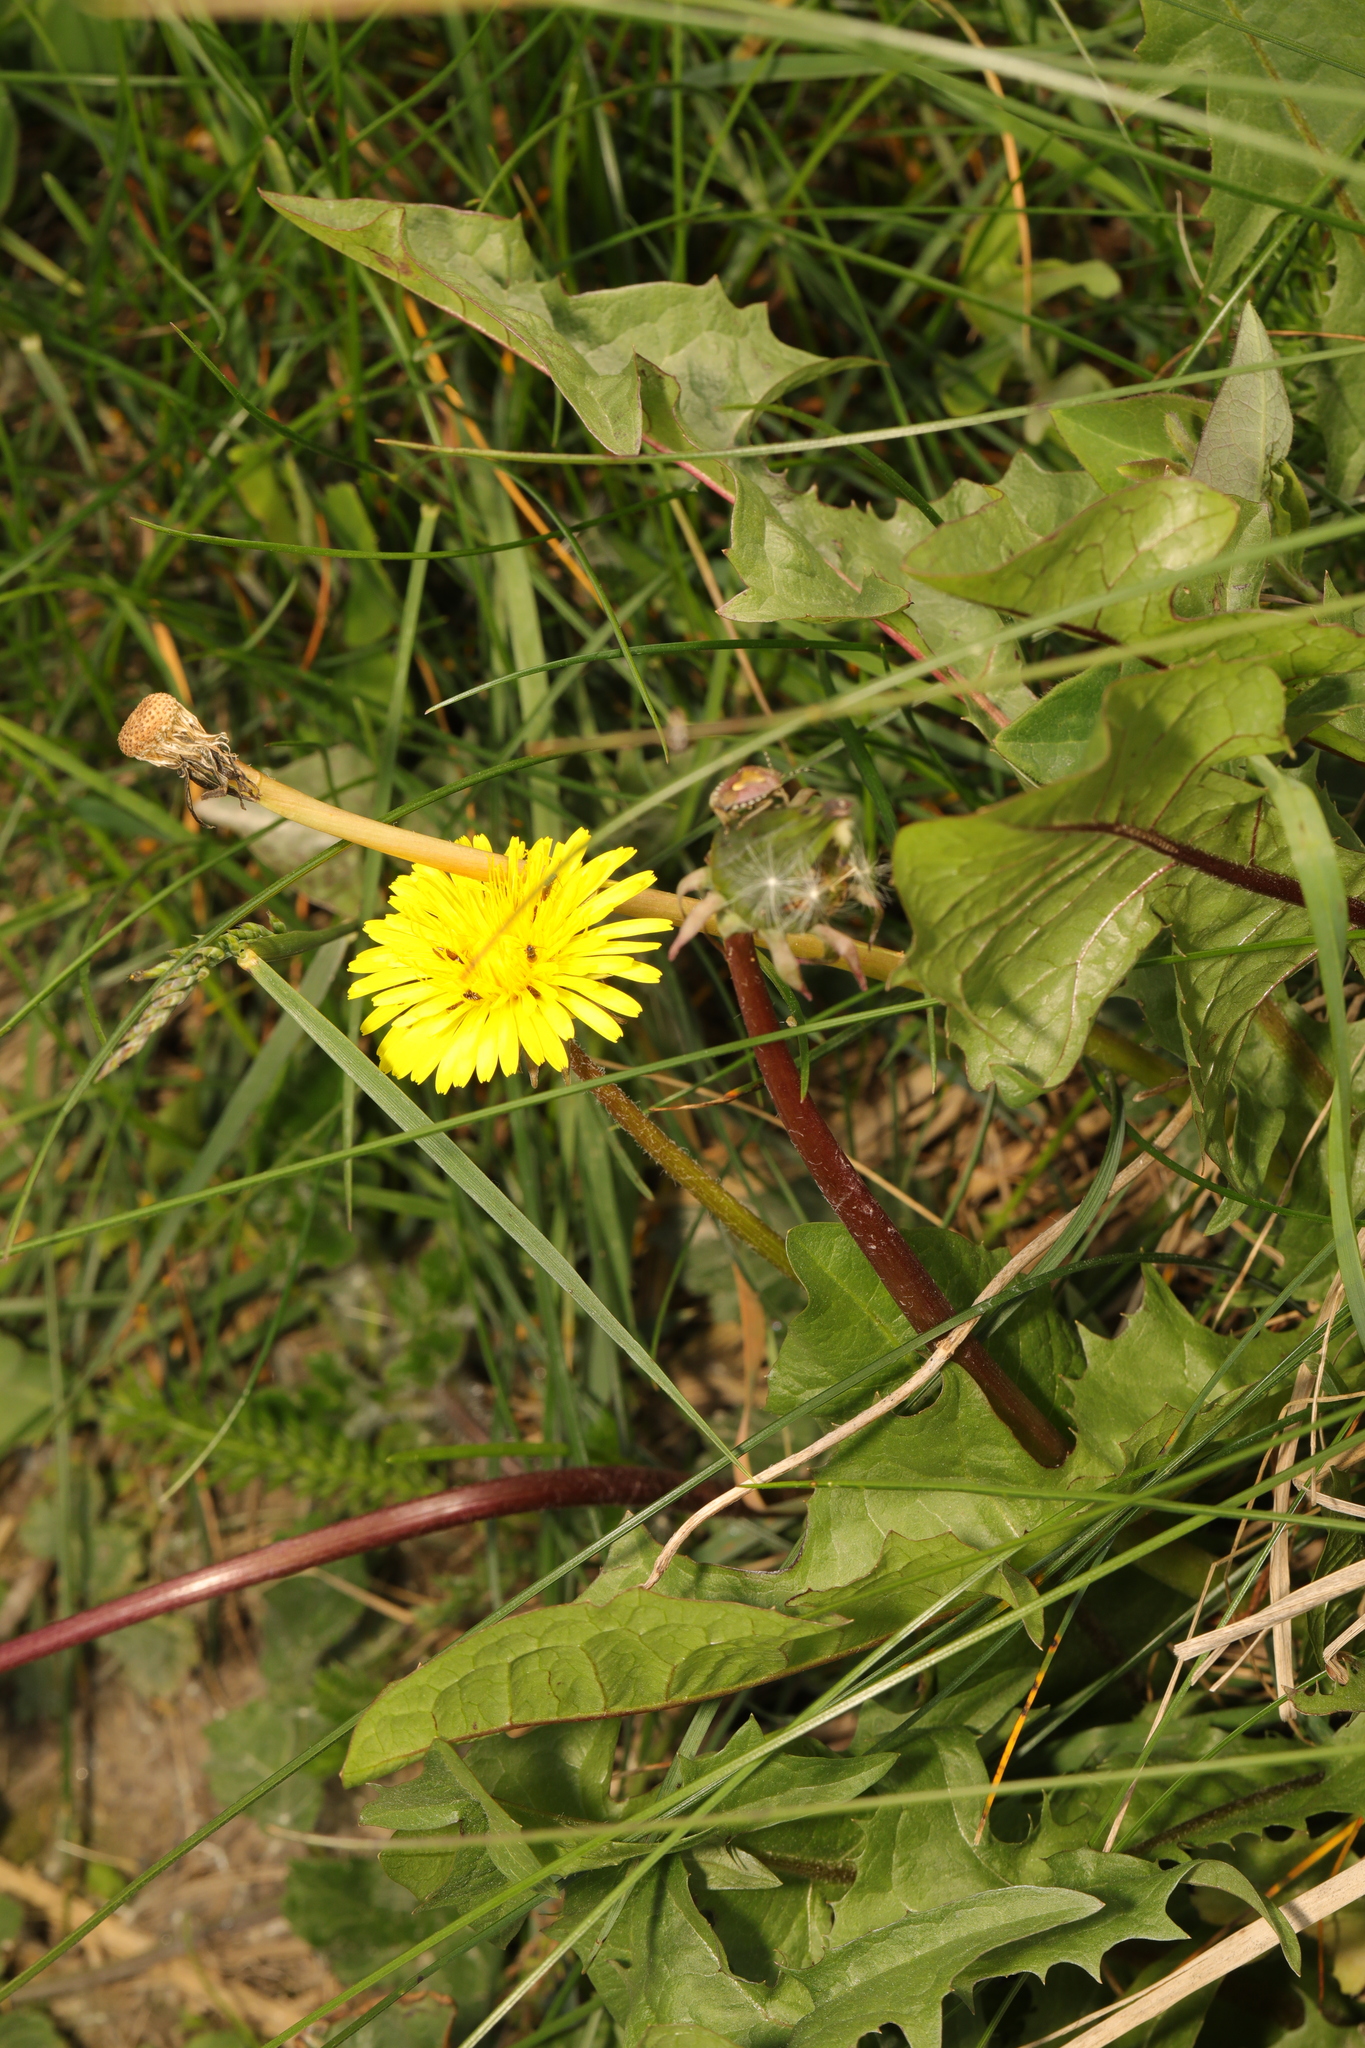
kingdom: Plantae
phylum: Tracheophyta
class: Magnoliopsida
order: Asterales
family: Asteraceae
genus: Taraxacum
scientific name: Taraxacum officinale
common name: Common dandelion
